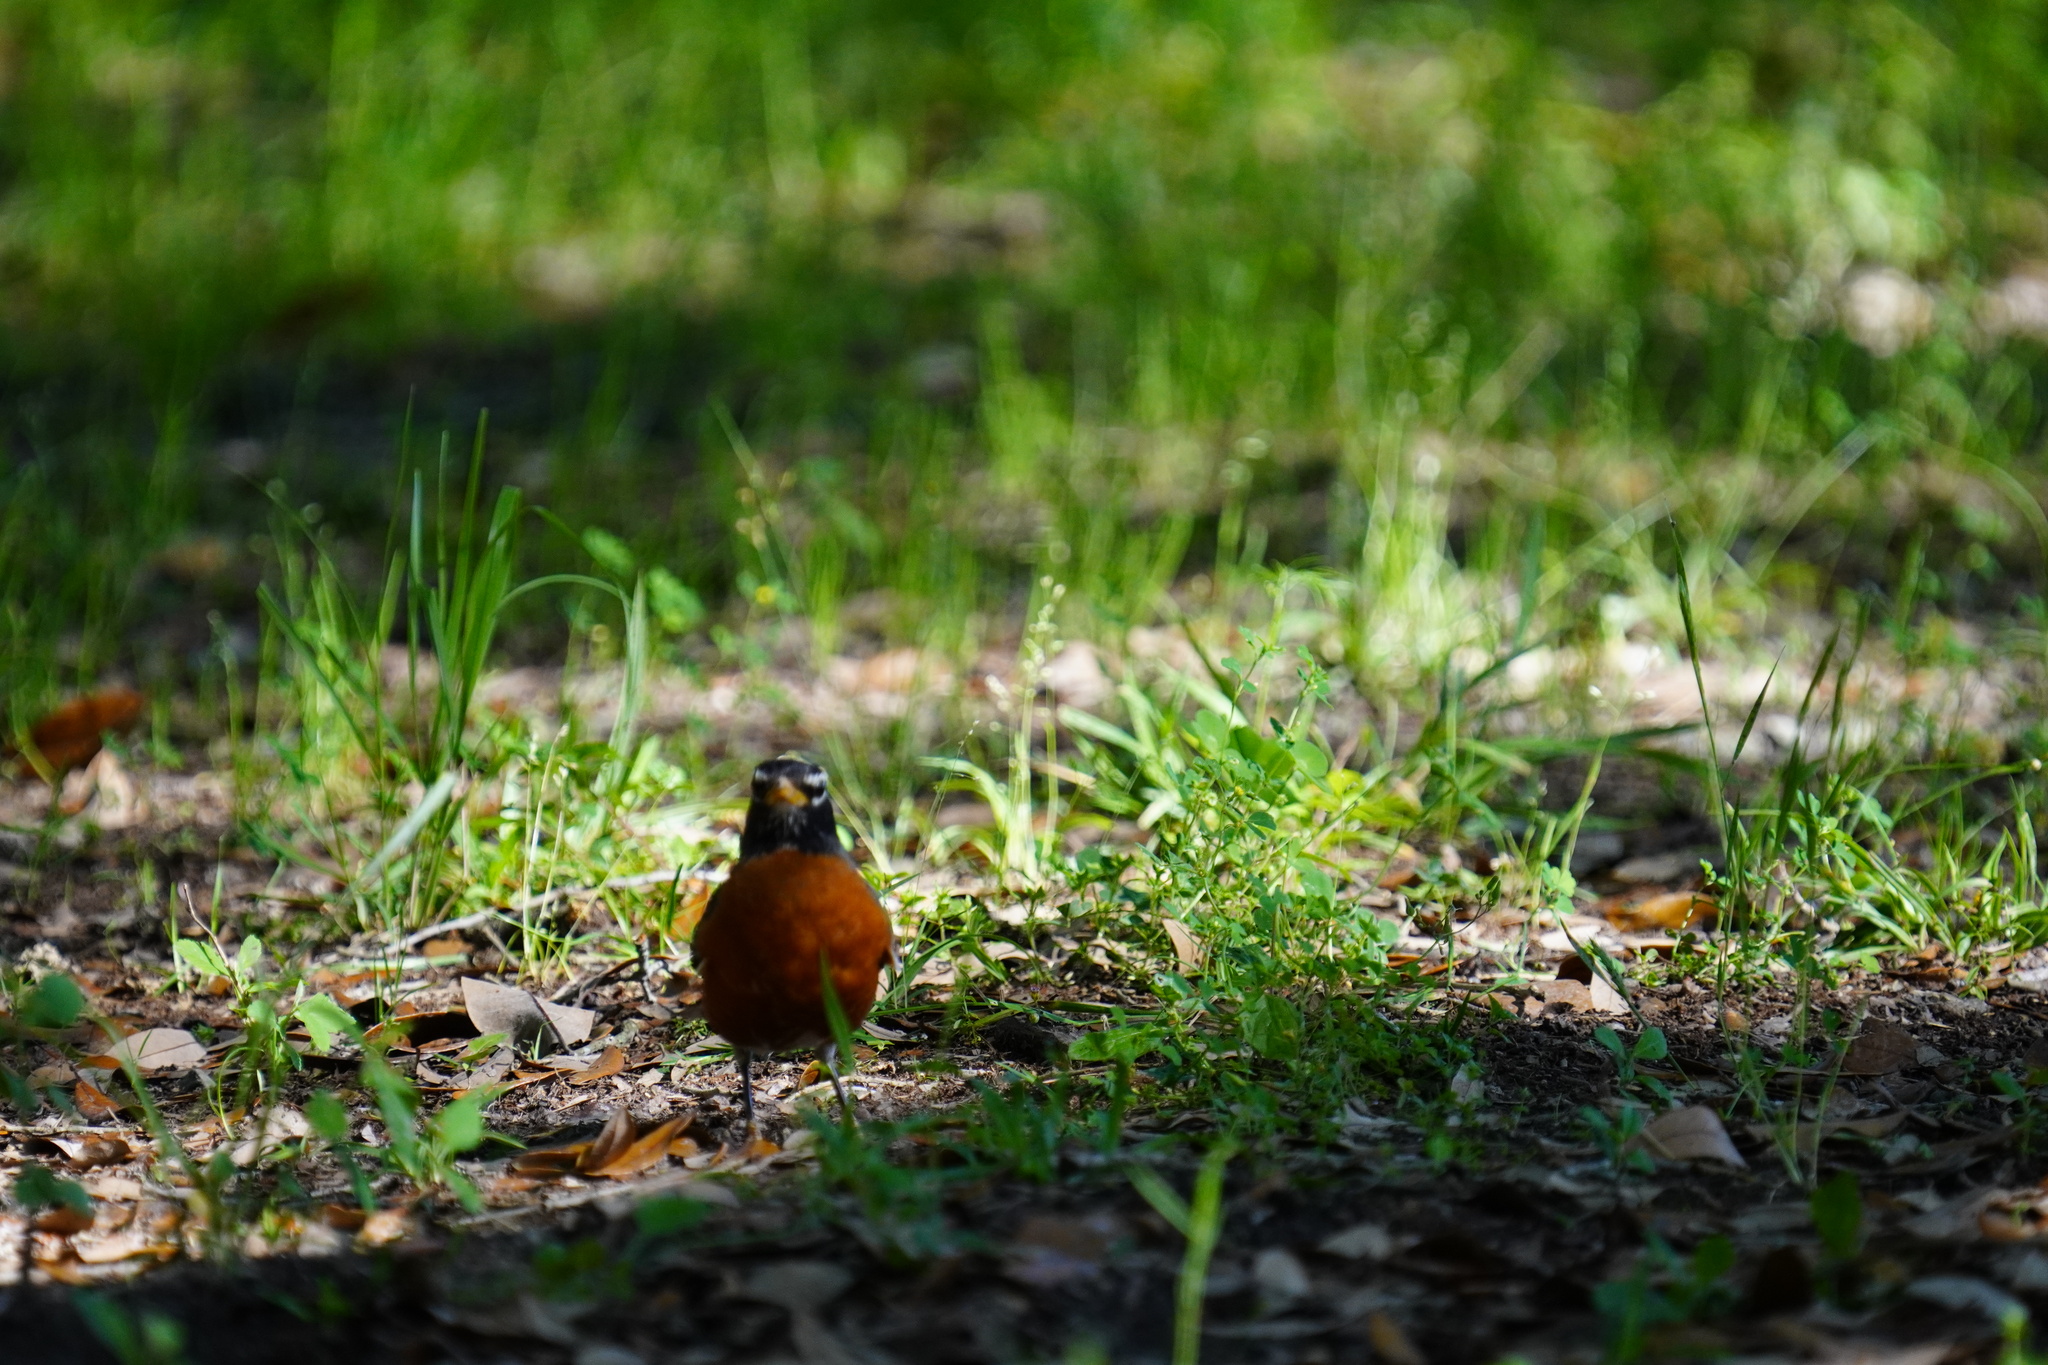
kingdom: Animalia
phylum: Chordata
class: Aves
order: Passeriformes
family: Turdidae
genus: Turdus
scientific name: Turdus migratorius
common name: American robin
